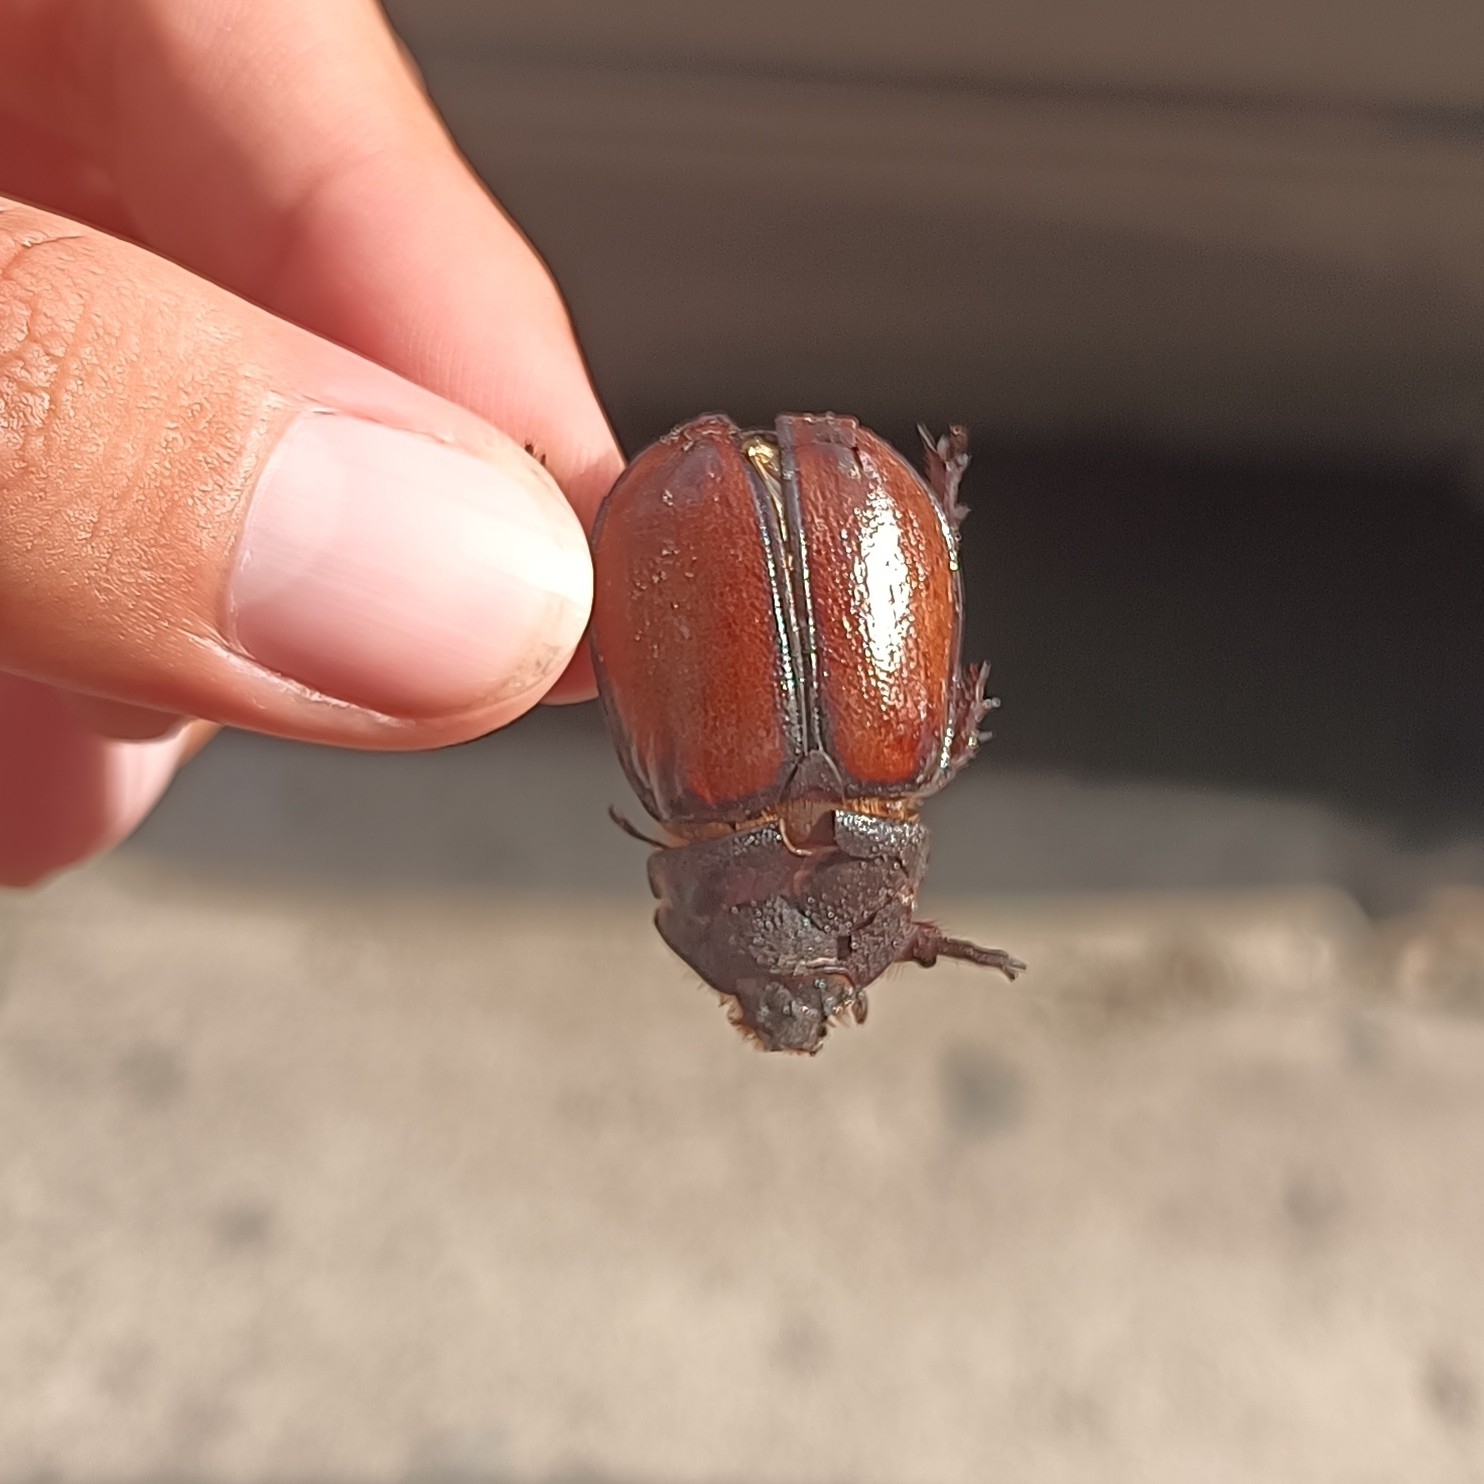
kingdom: Animalia
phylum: Arthropoda
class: Insecta
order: Coleoptera
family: Scarabaeidae
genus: Golofa
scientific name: Golofa pusilla
